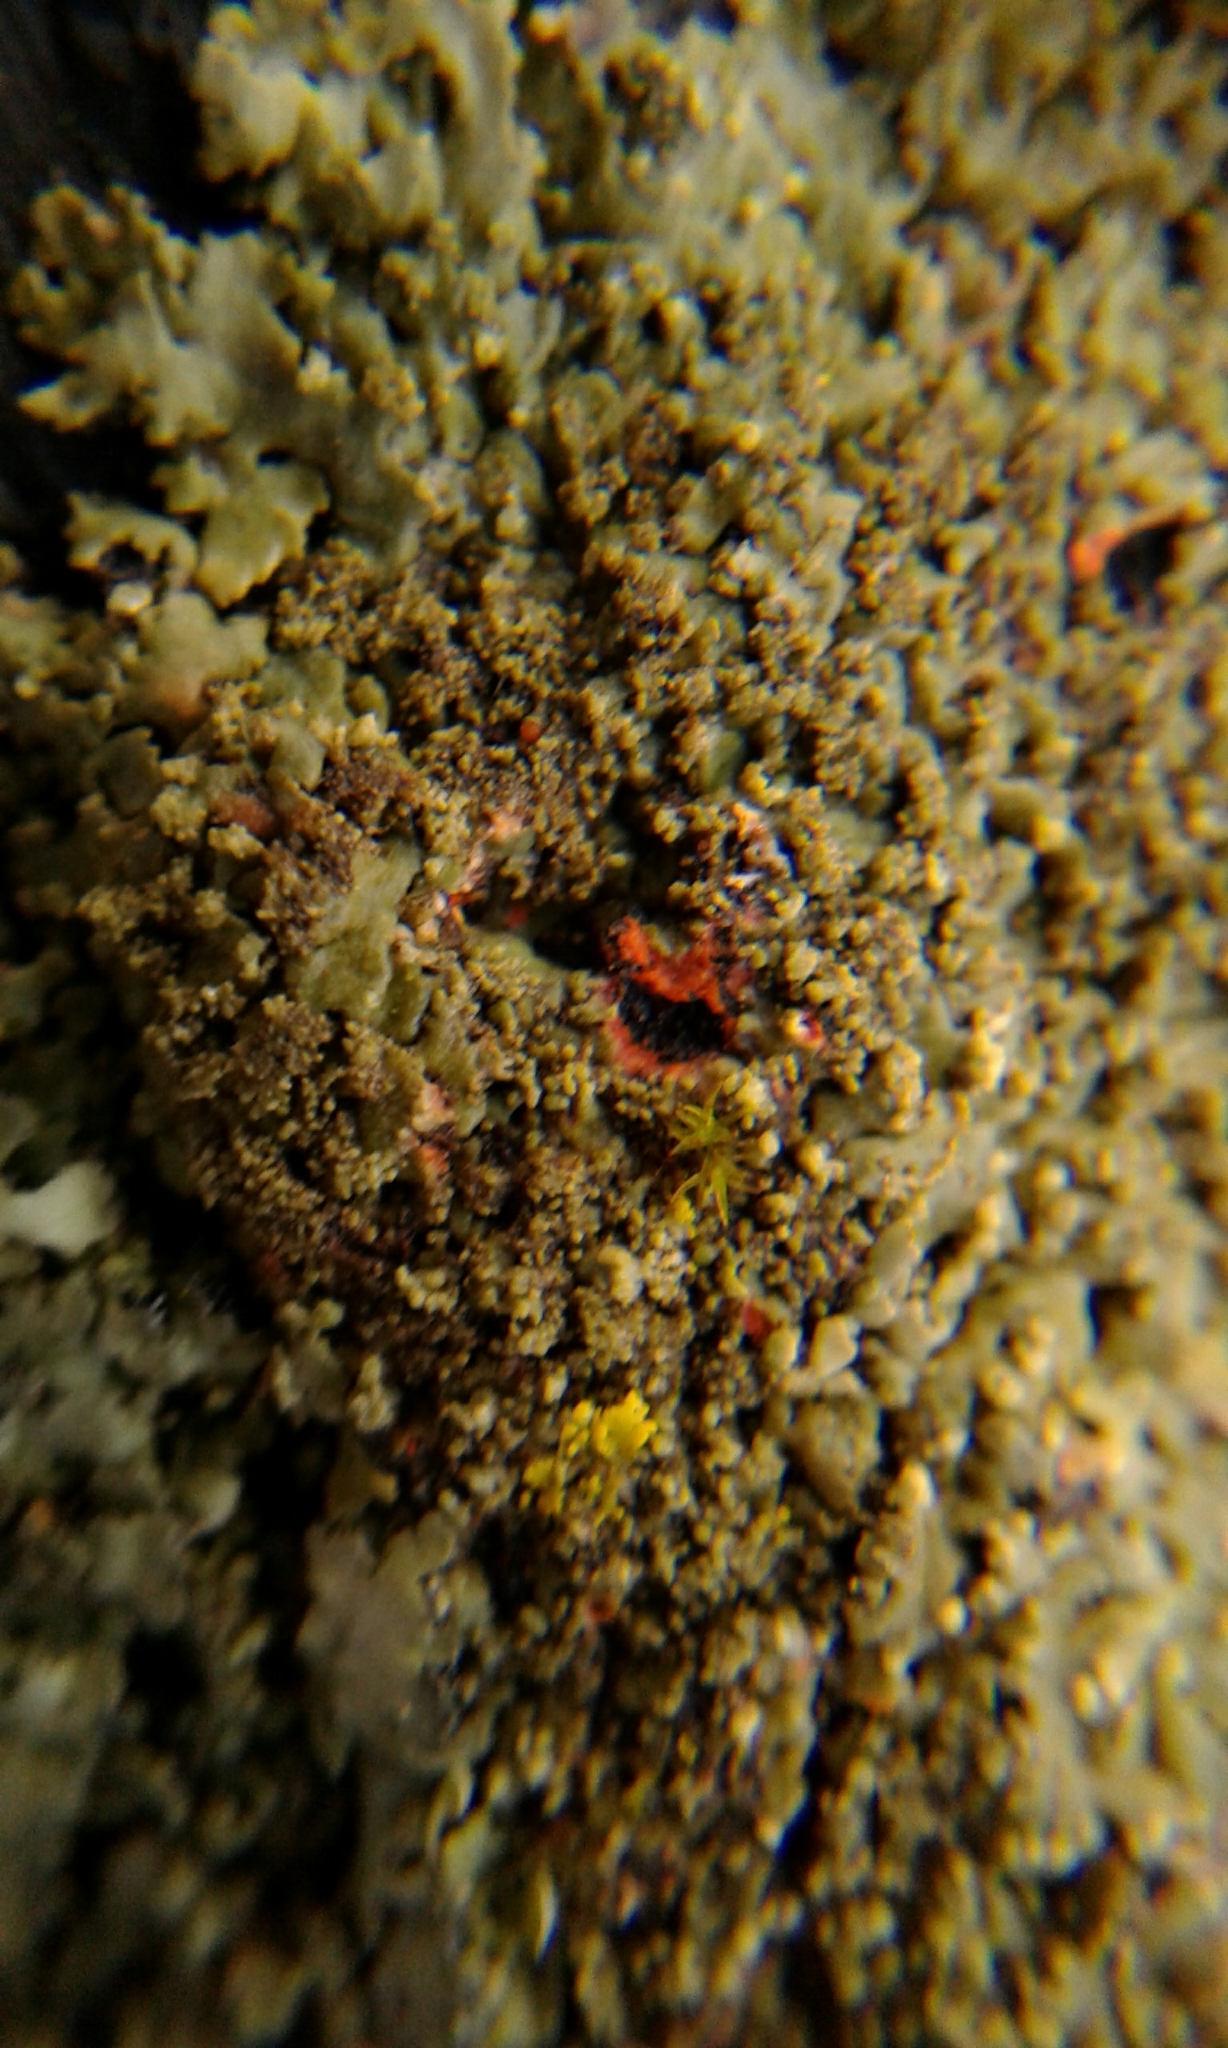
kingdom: Fungi
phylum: Ascomycota
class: Lecanoromycetes
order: Caliciales
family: Physciaceae
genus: Phaeophyscia
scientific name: Phaeophyscia rubropulchra
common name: Orange-cored shadow lichen
